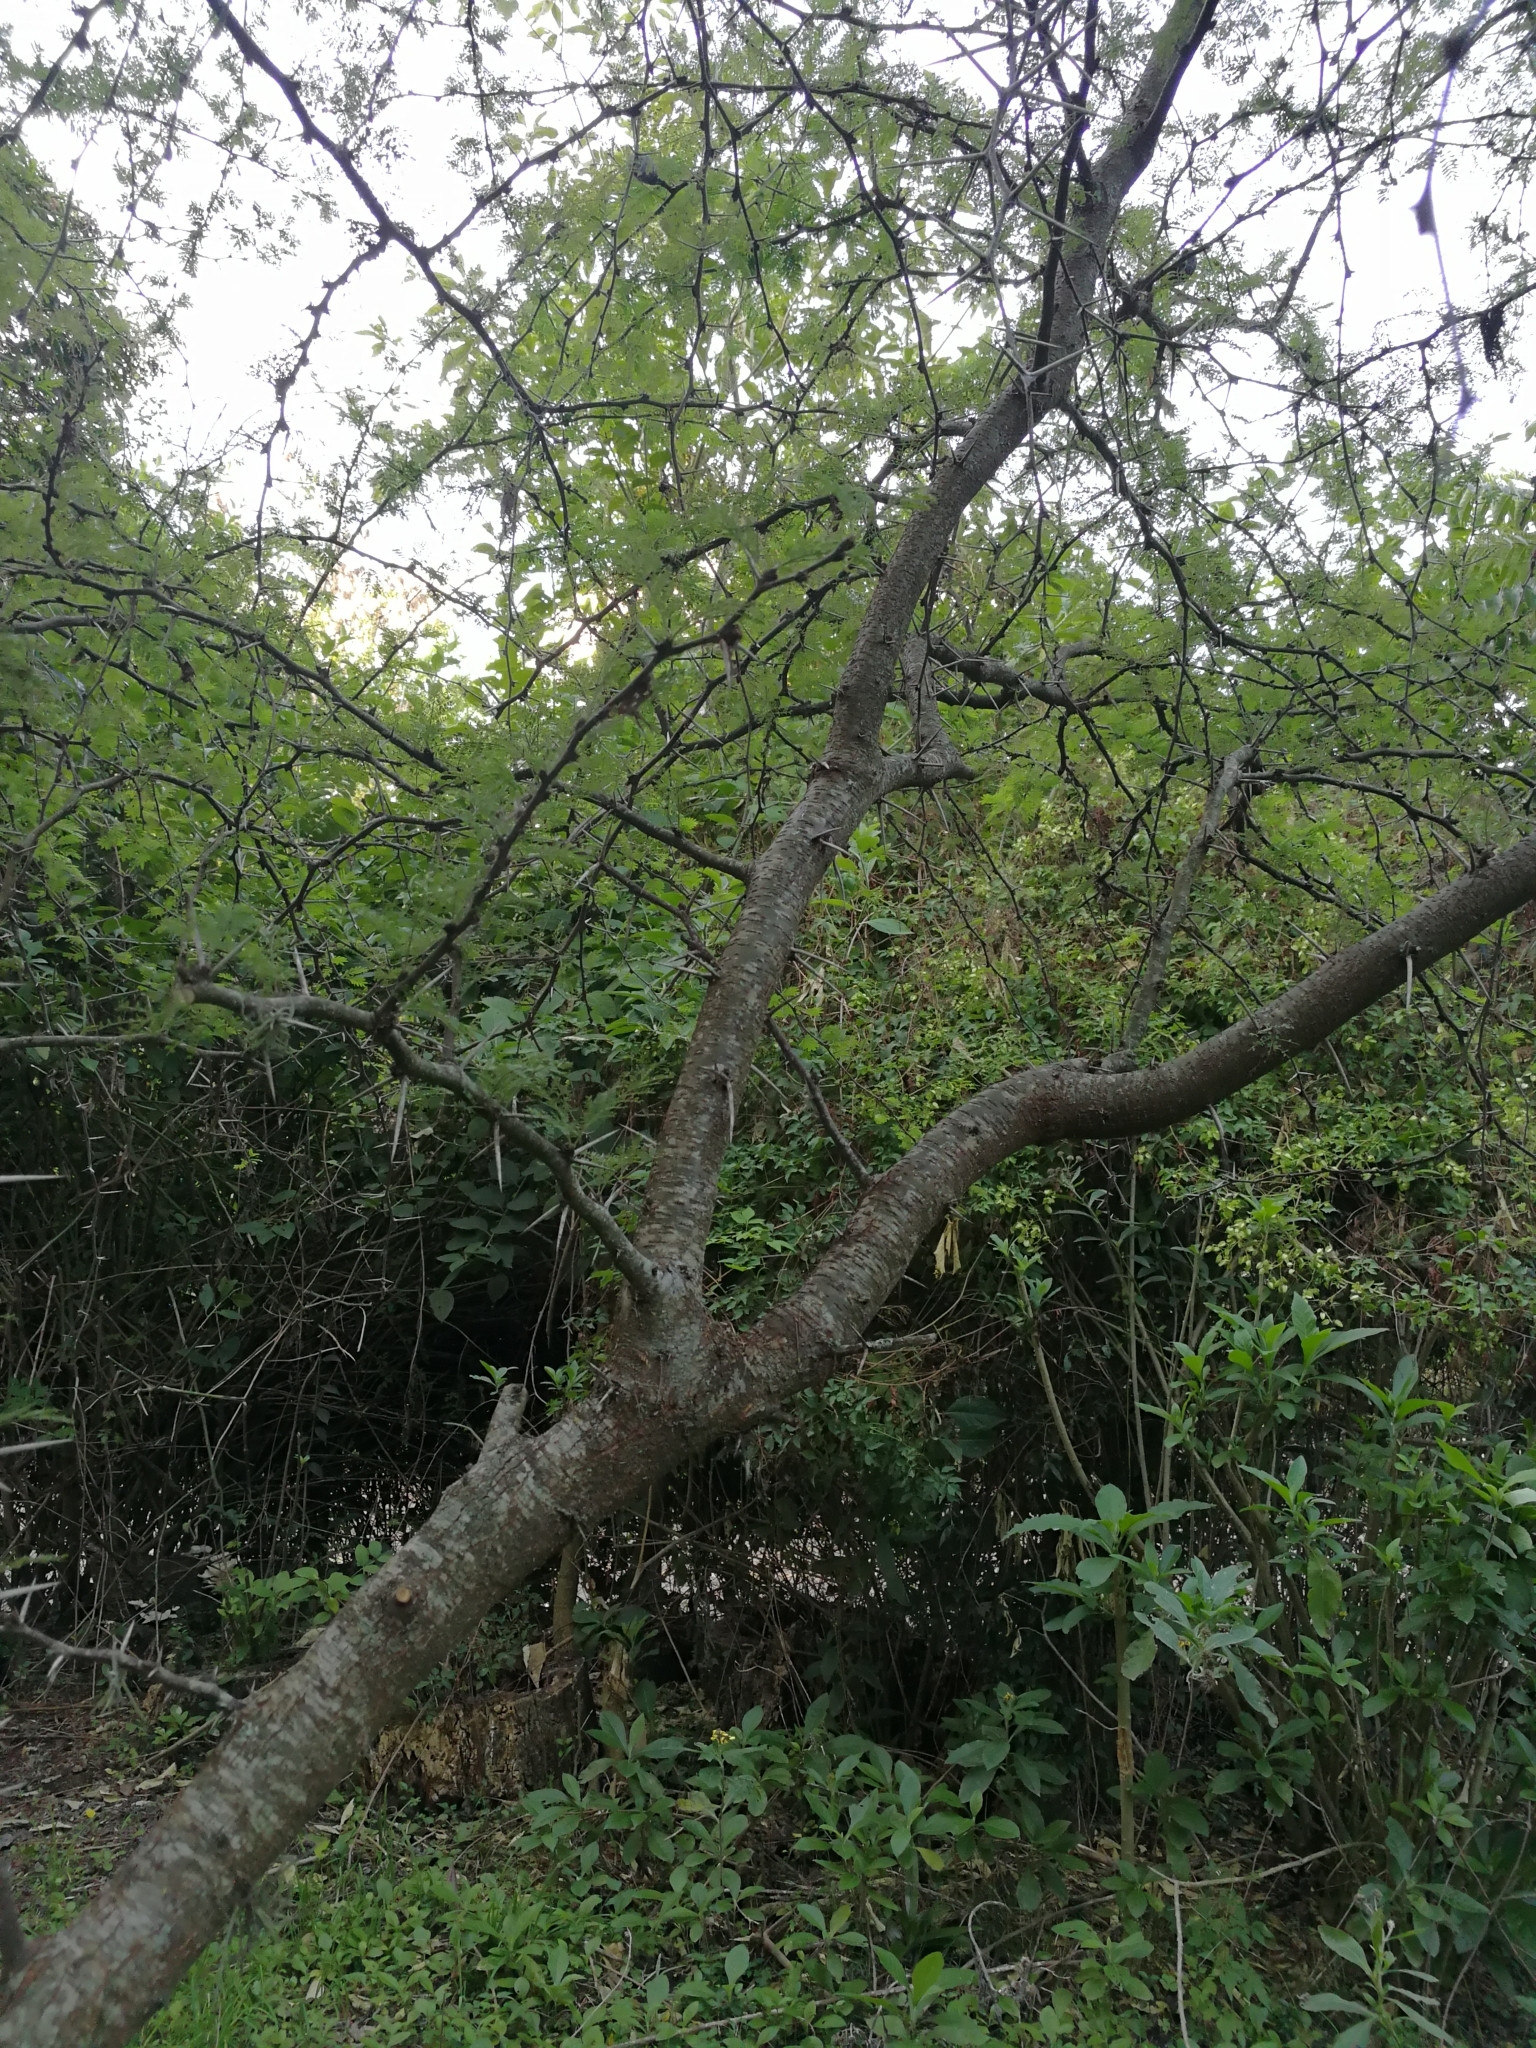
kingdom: Plantae
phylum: Tracheophyta
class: Magnoliopsida
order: Fabales
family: Fabaceae
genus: Vachellia
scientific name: Vachellia caven
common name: Roman cassie
